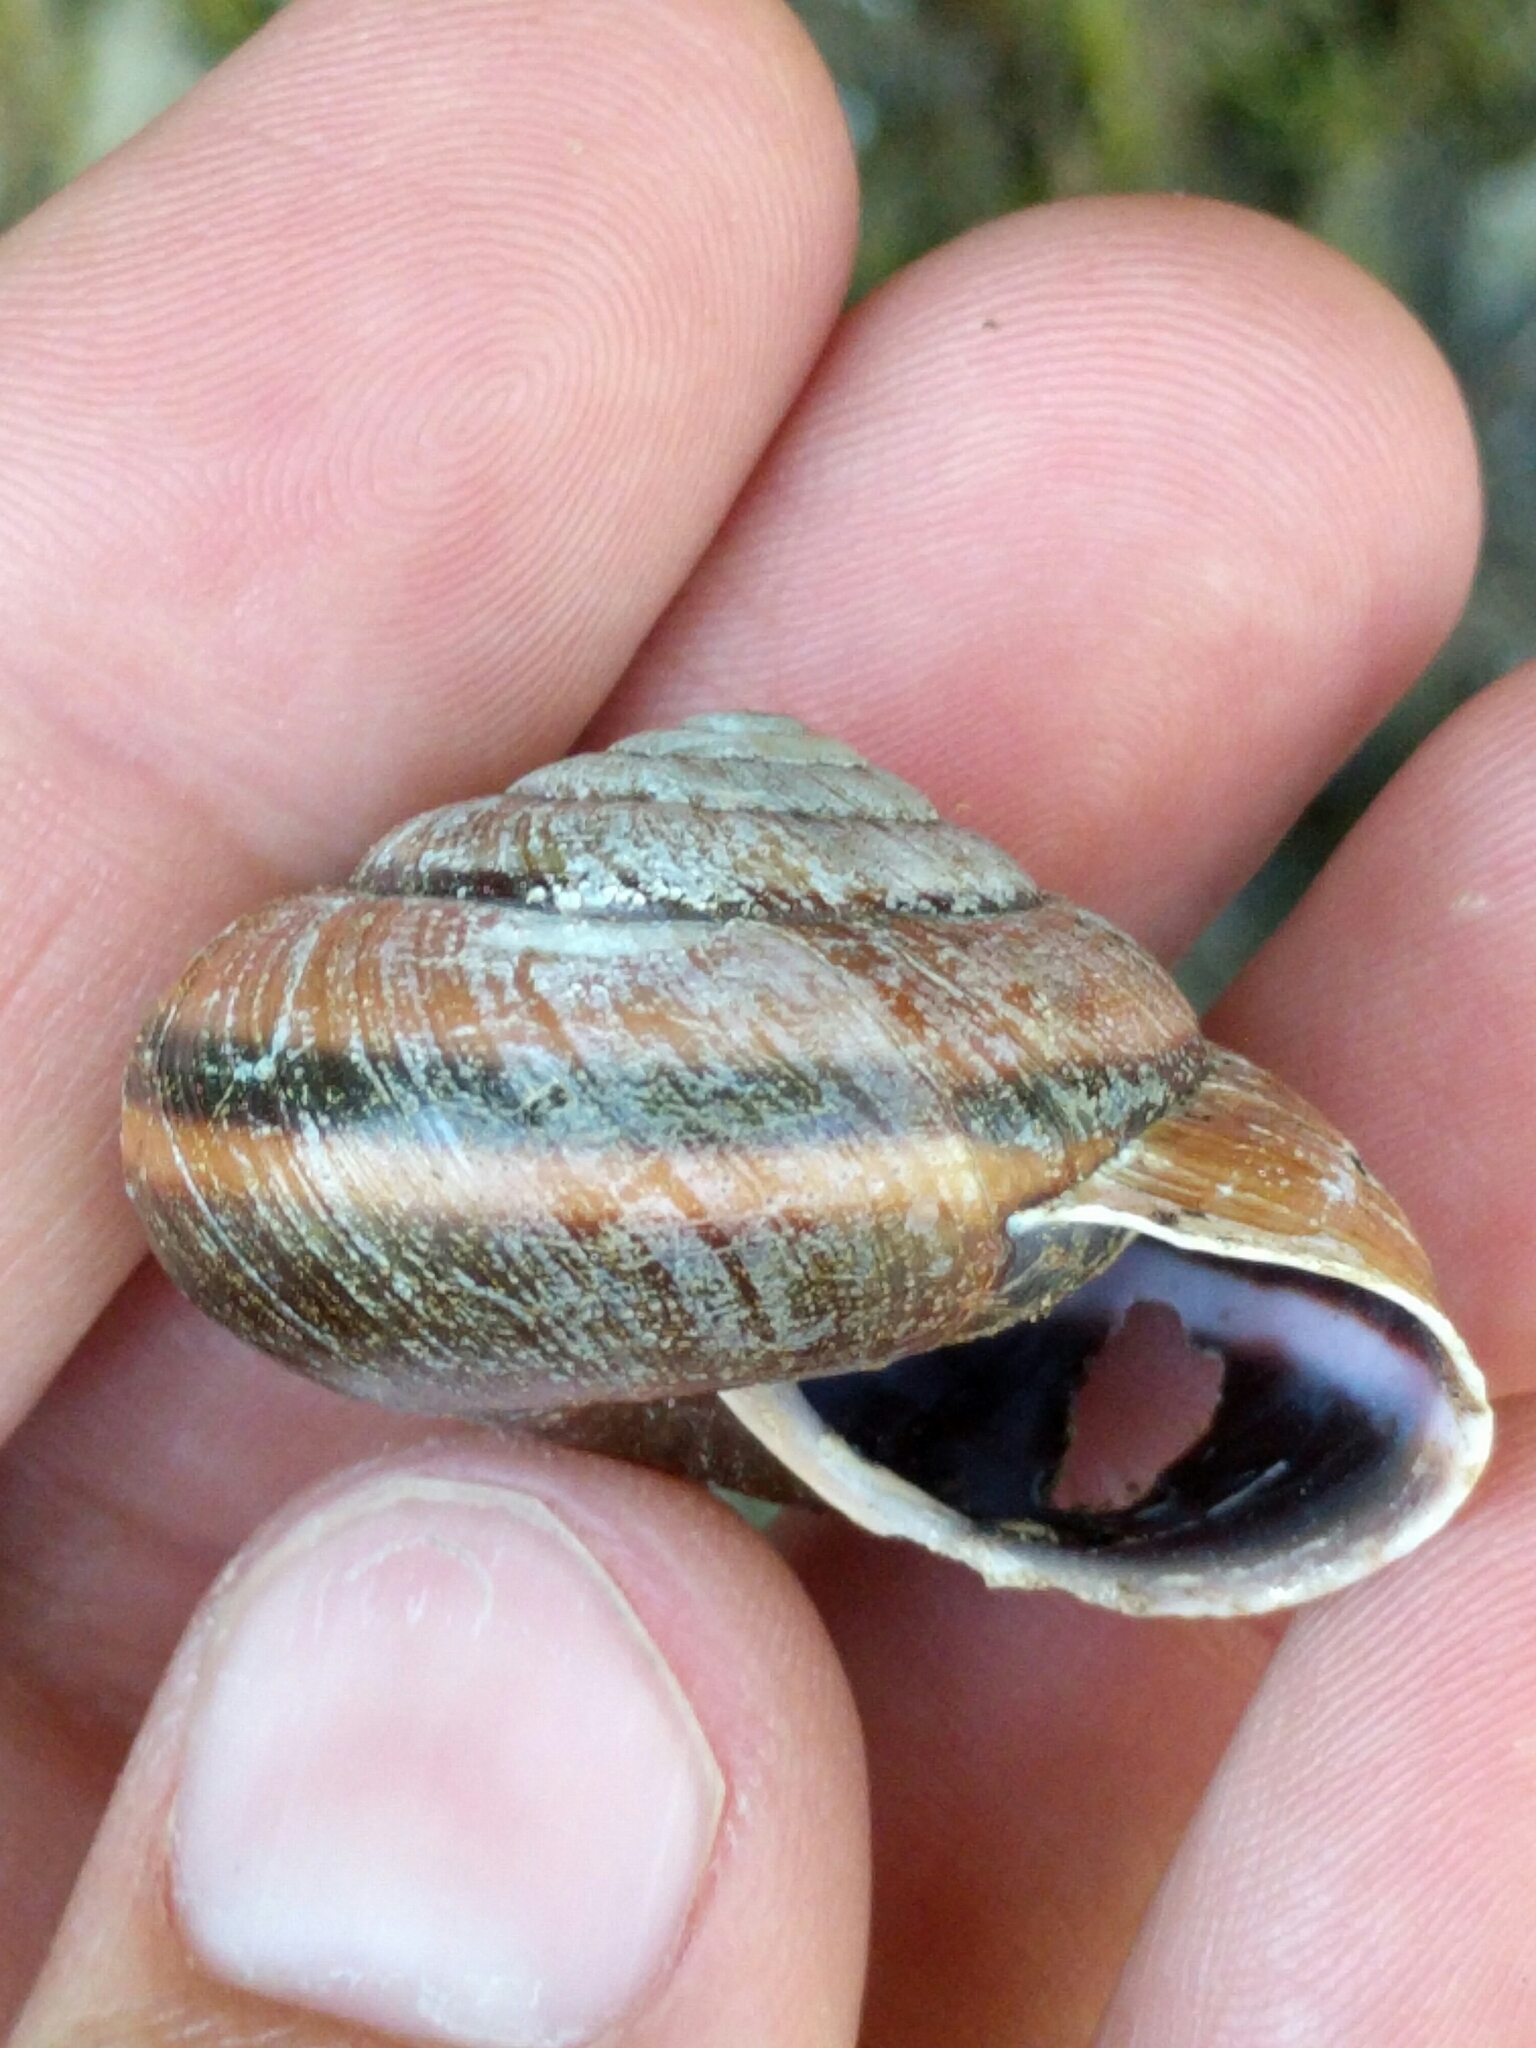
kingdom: Animalia
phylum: Mollusca
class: Gastropoda
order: Stylommatophora
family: Xanthonychidae
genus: Monadenia
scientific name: Monadenia fidelis
